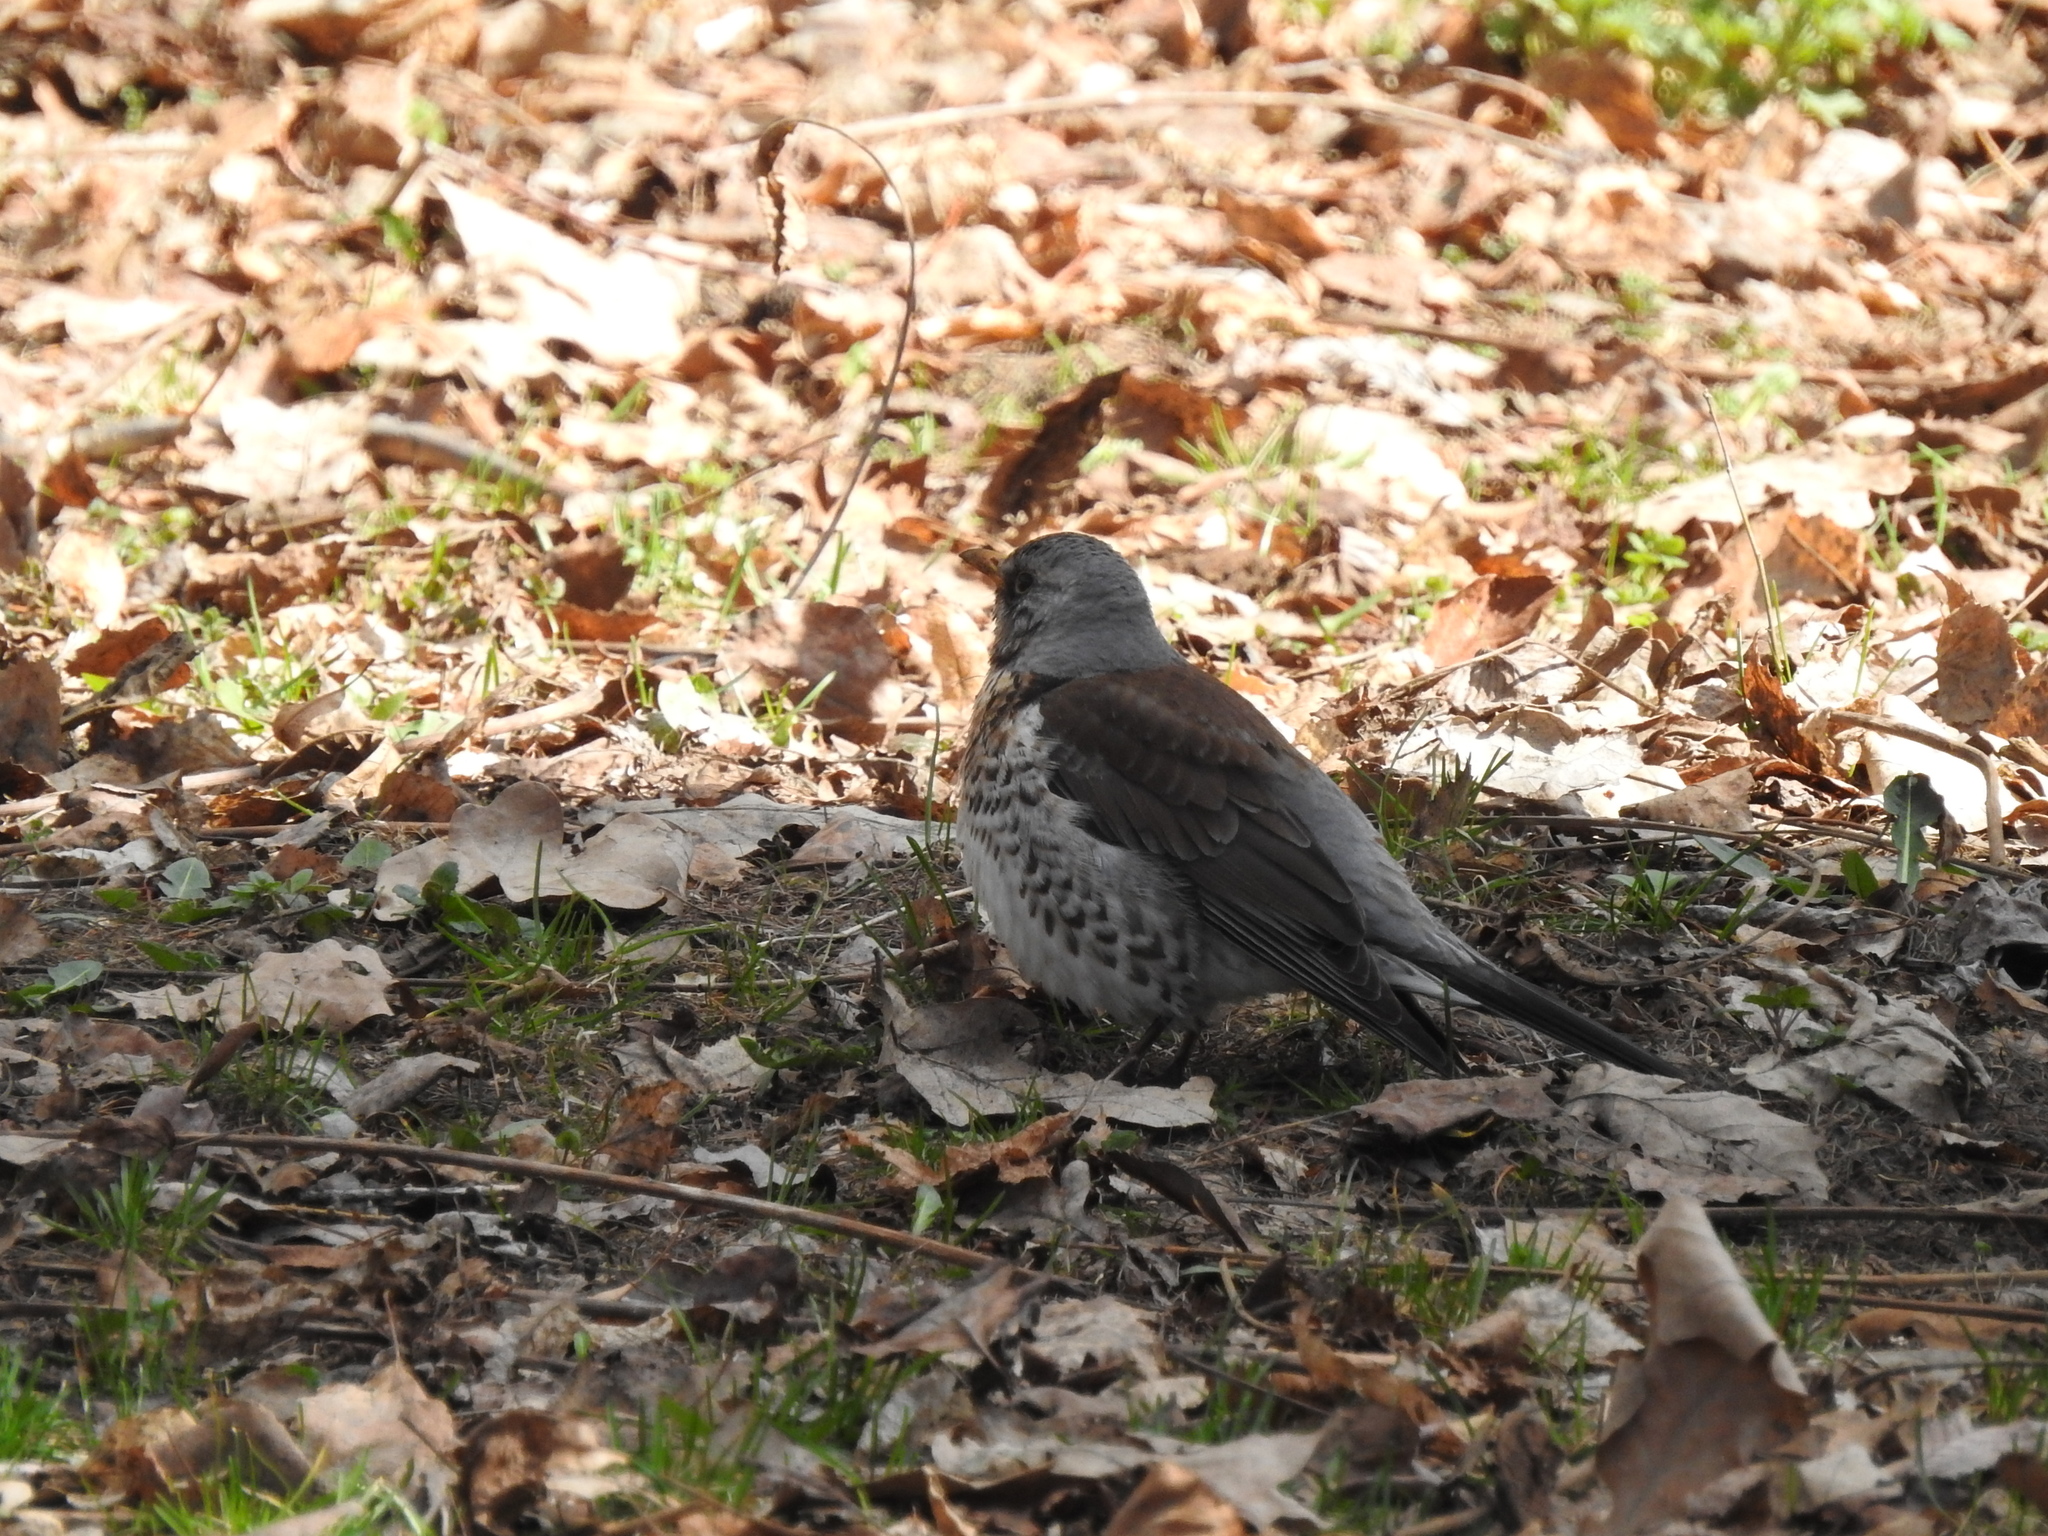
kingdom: Animalia
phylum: Chordata
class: Aves
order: Passeriformes
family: Turdidae
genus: Turdus
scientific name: Turdus pilaris
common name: Fieldfare
